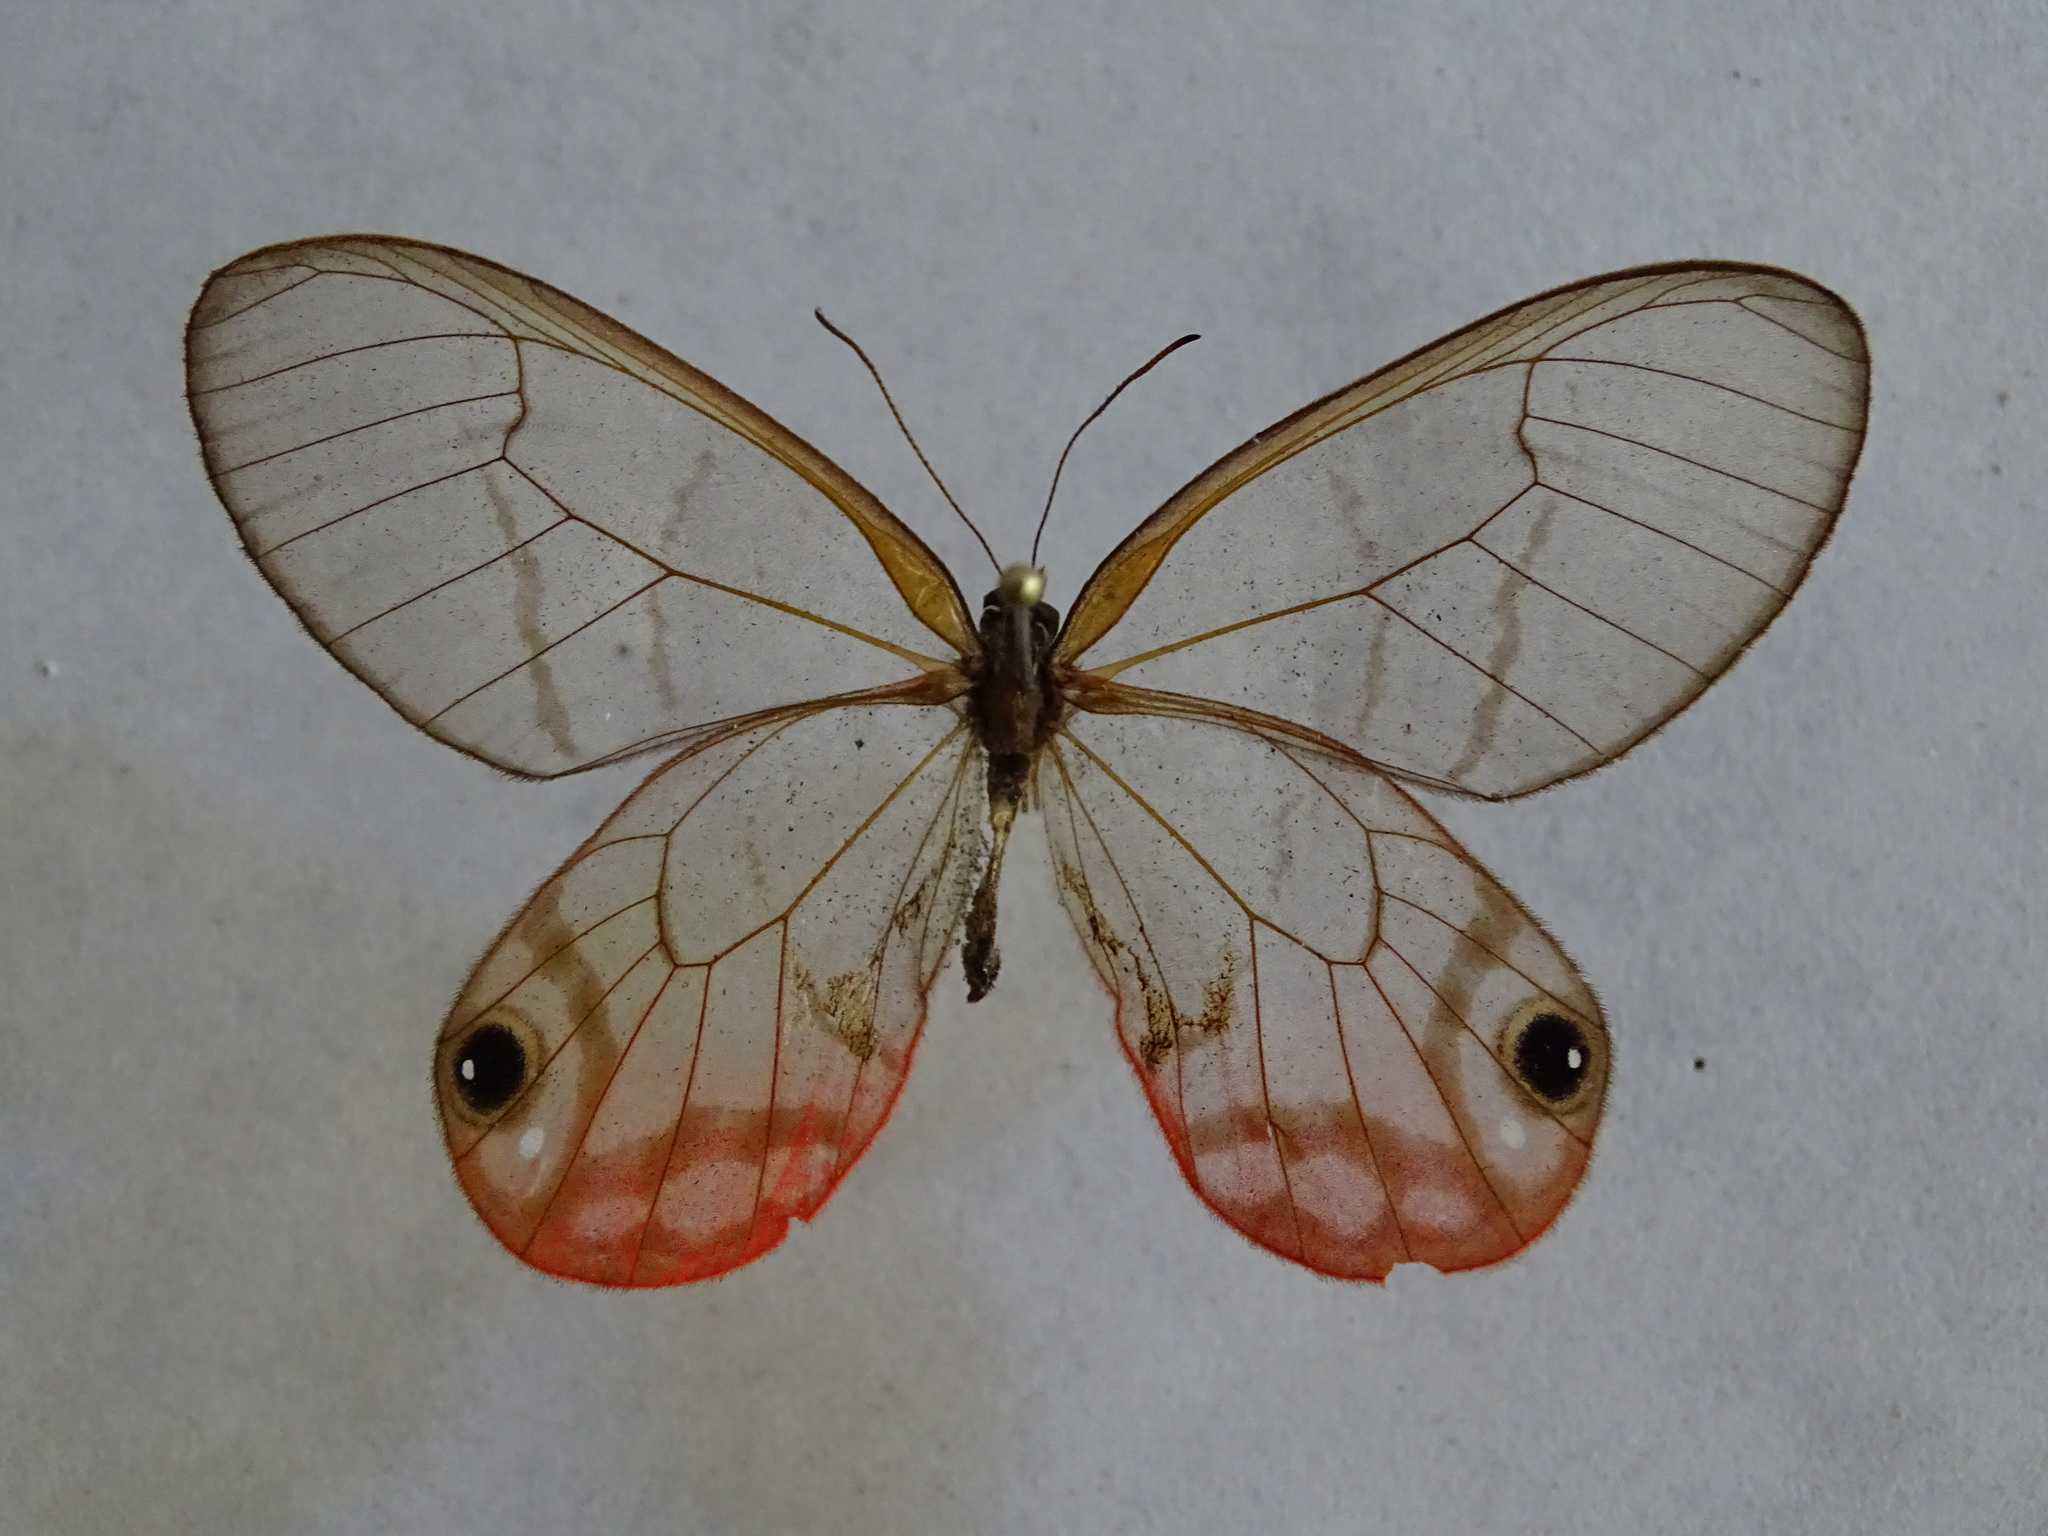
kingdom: Animalia
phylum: Arthropoda
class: Insecta
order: Lepidoptera
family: Nymphalidae
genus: Cithaerias
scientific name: Cithaerias pireta
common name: Rusted clearwing-satyr
